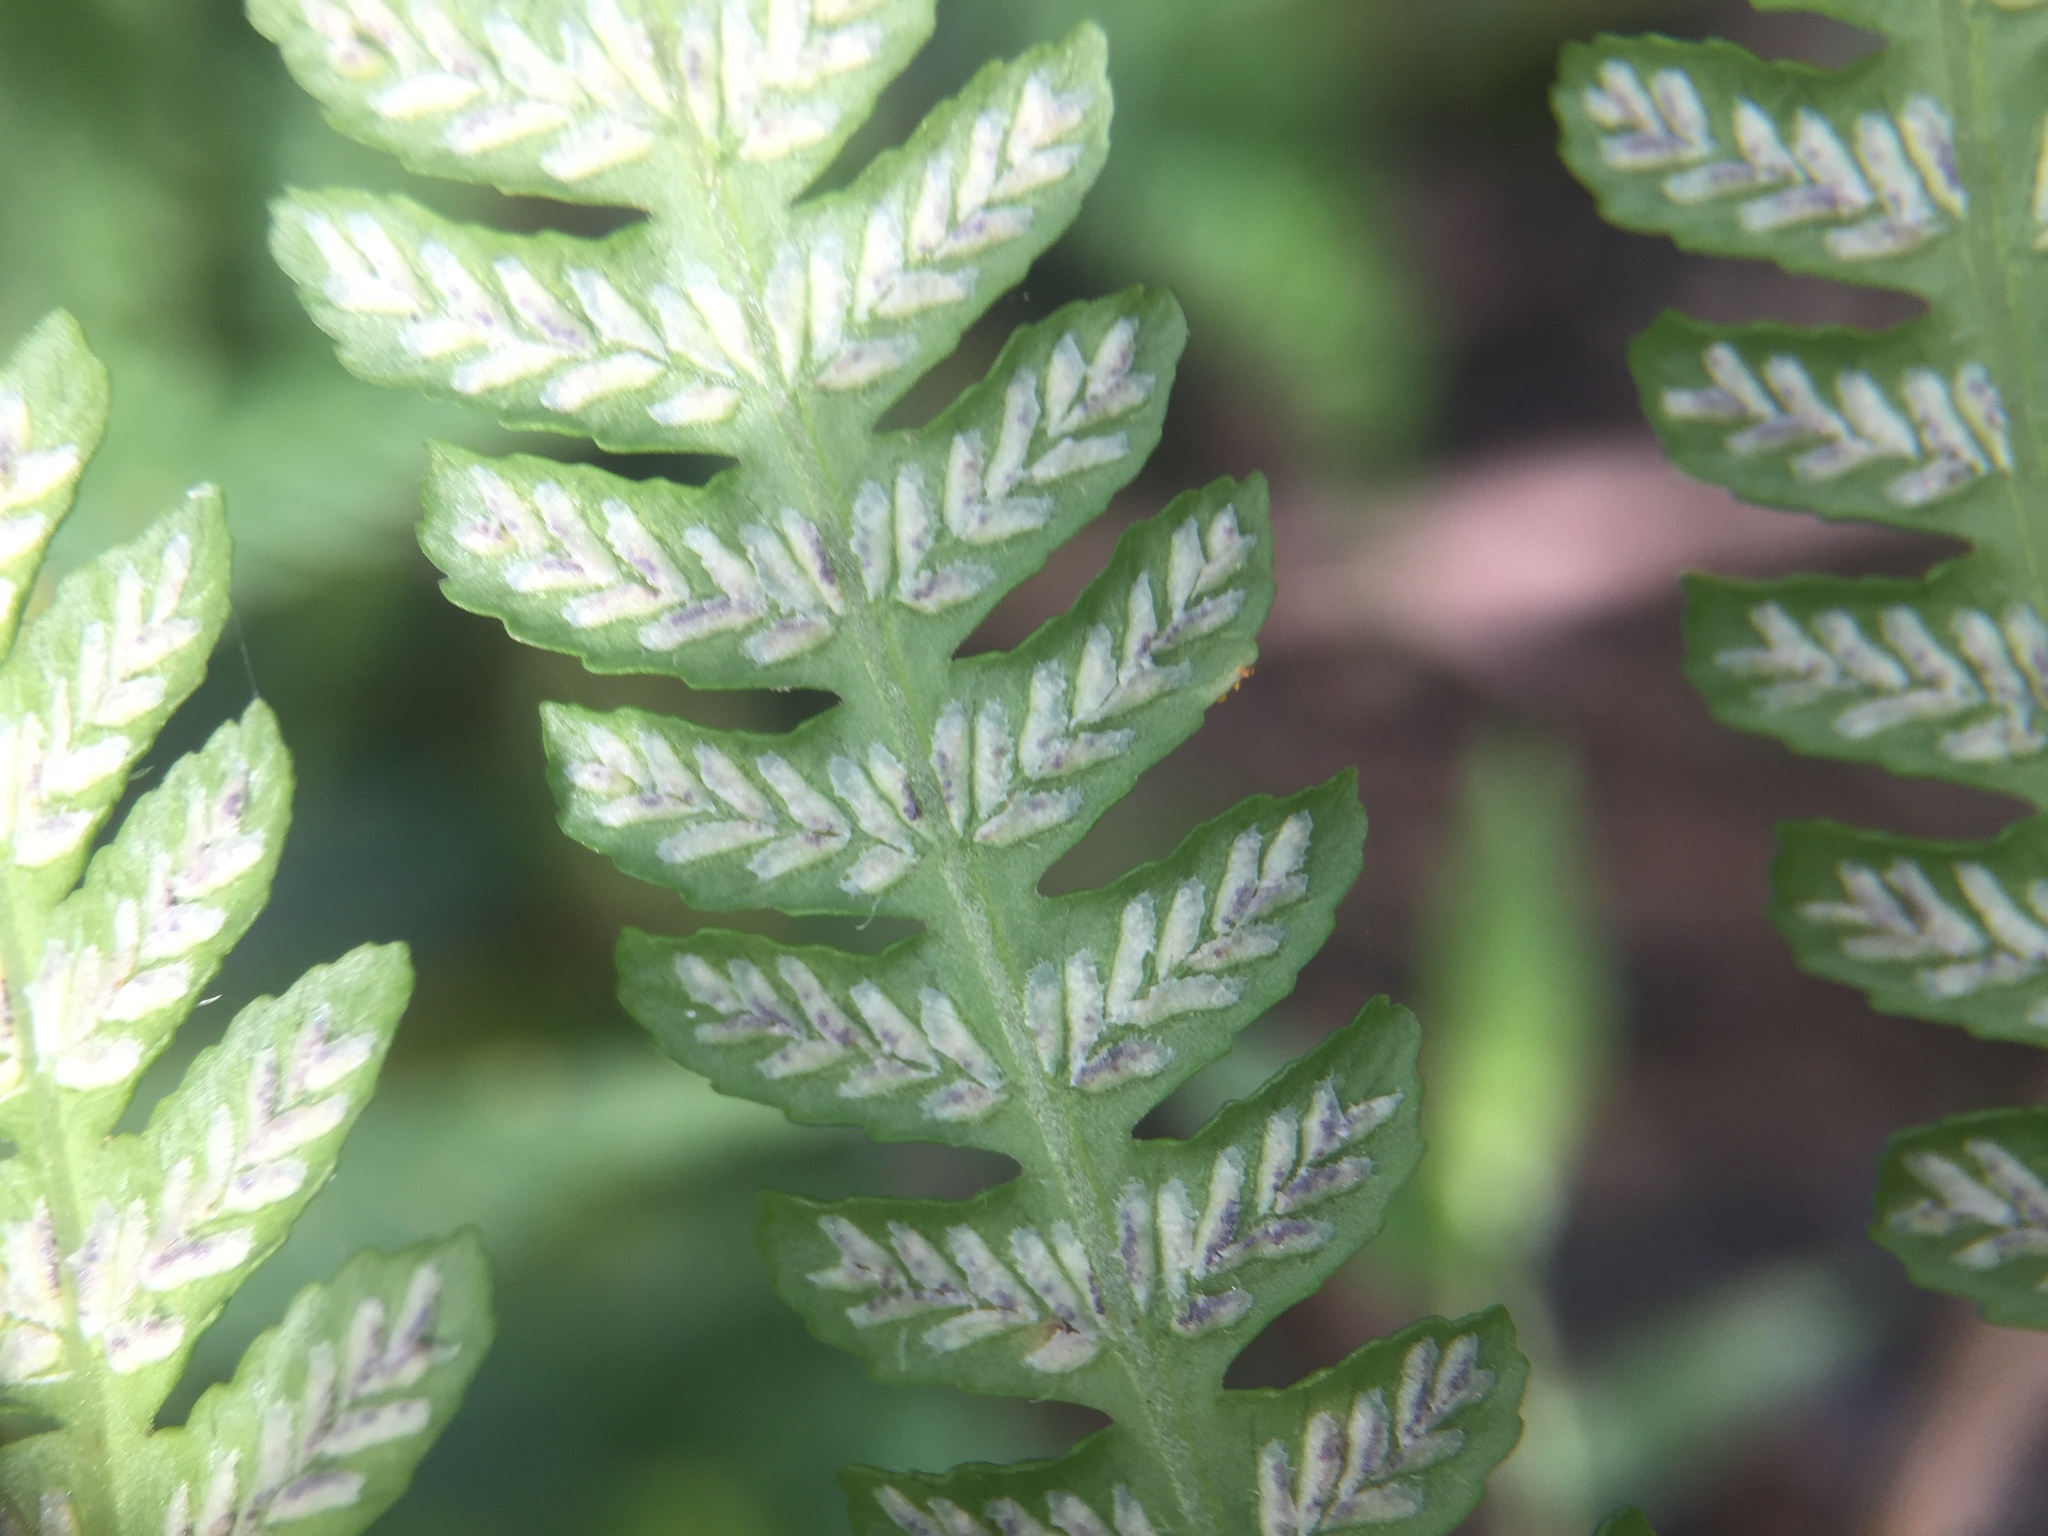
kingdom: Plantae
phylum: Tracheophyta
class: Polypodiopsida
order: Polypodiales
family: Athyriaceae
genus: Deparia
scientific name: Deparia petersenii
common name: Japanese false spleenwort
